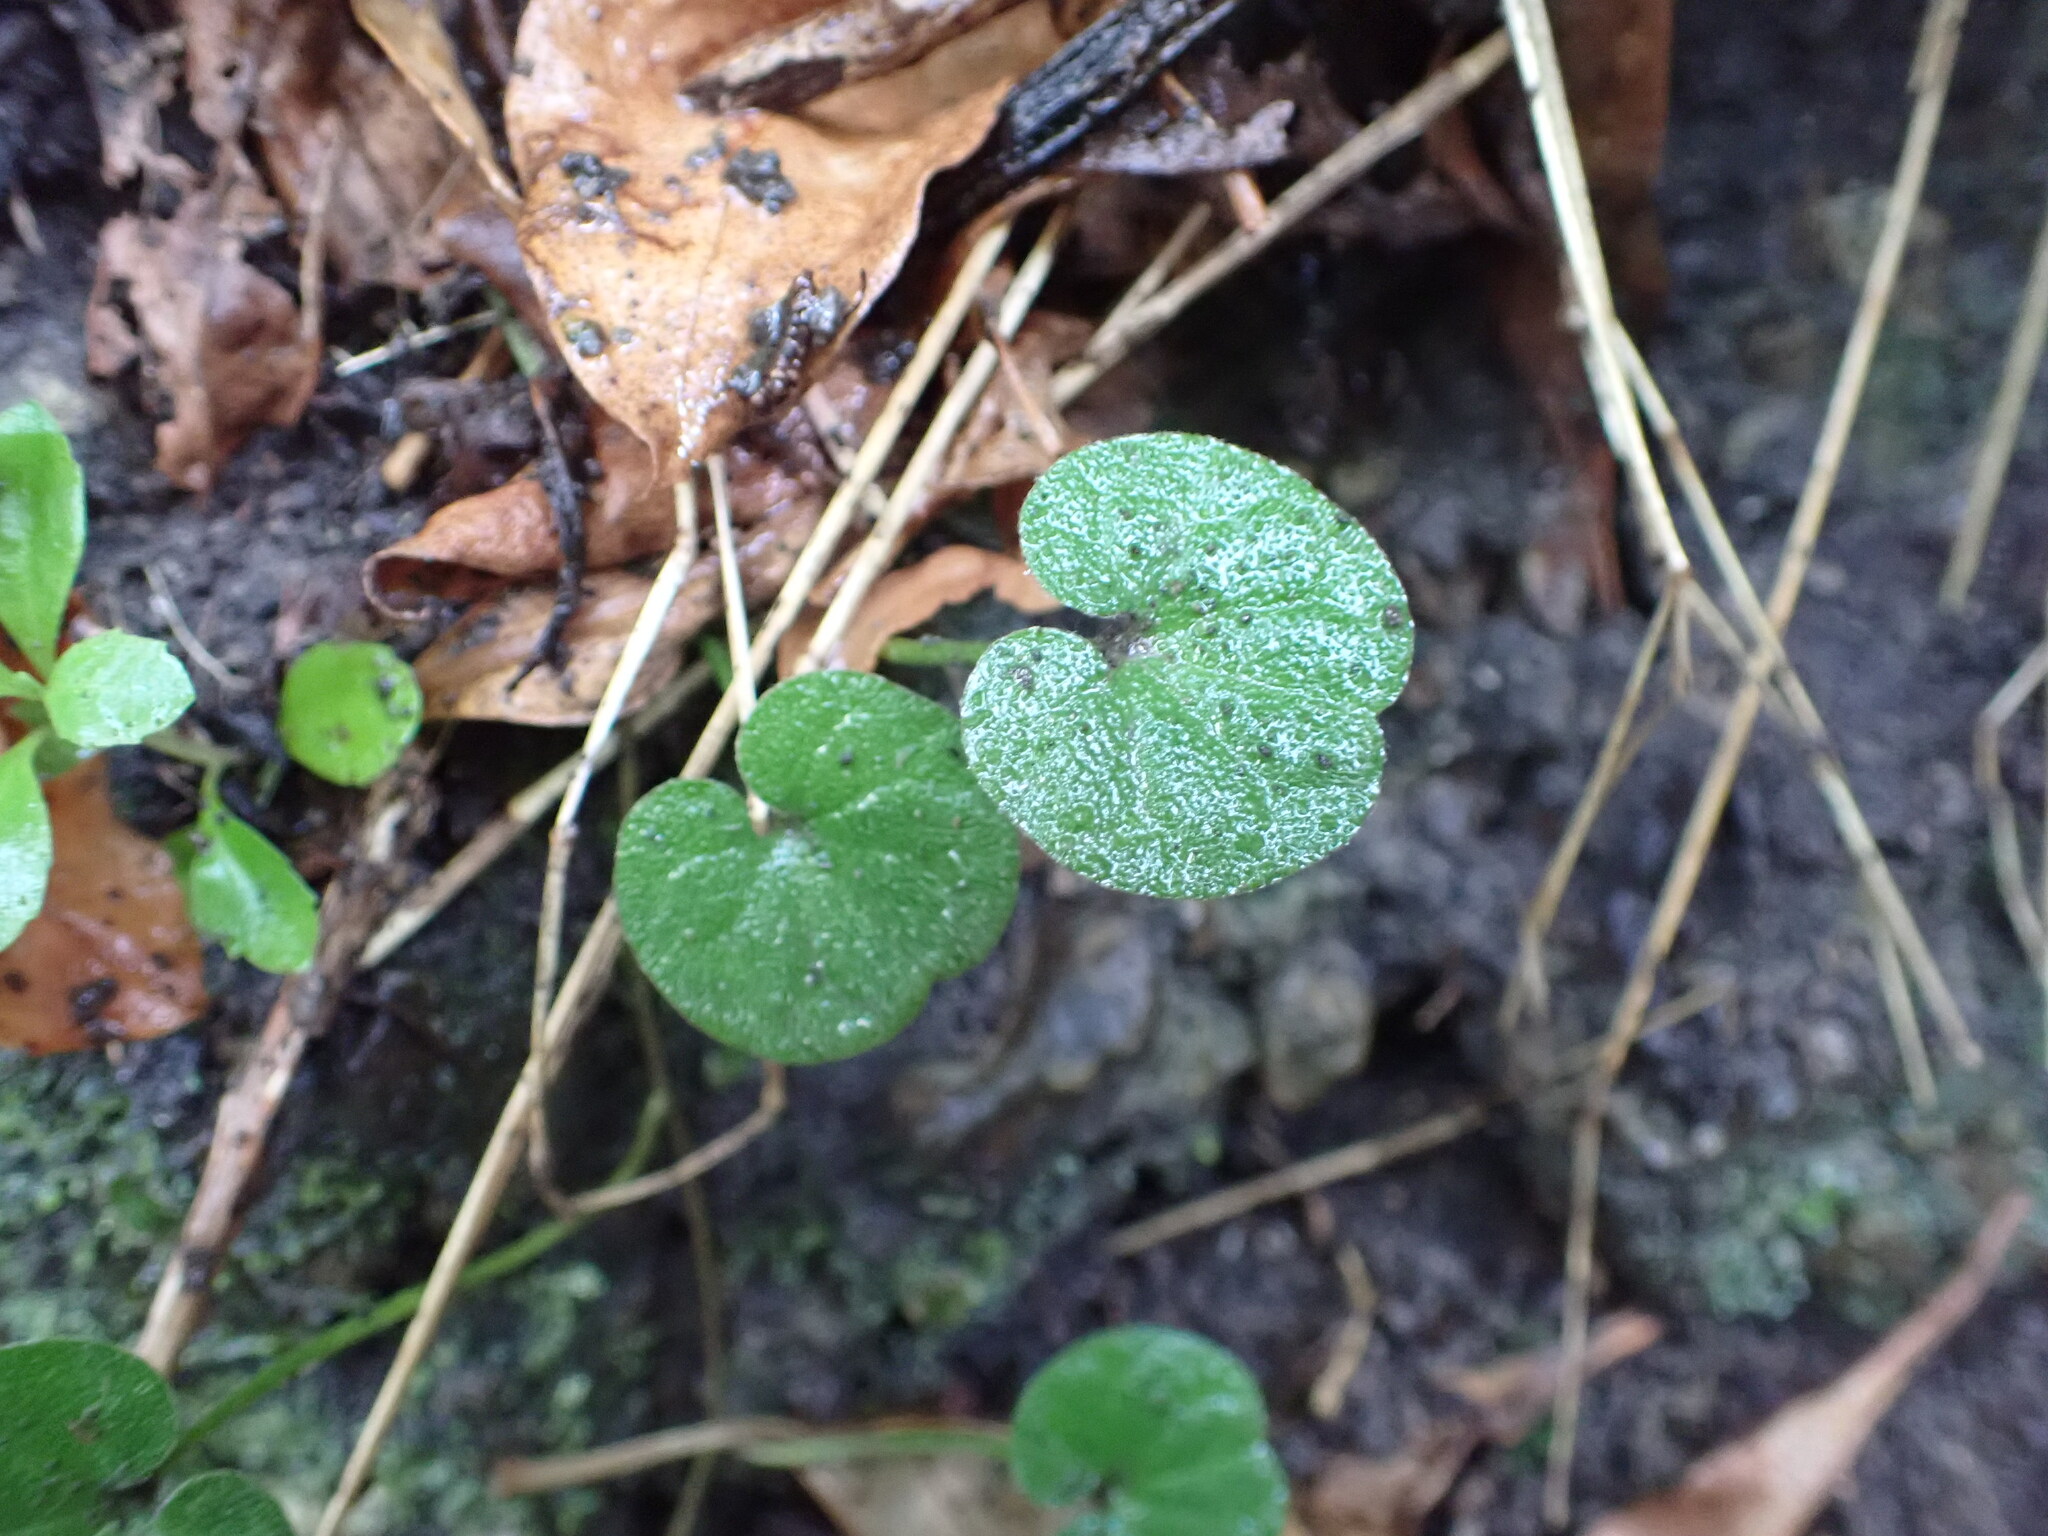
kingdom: Plantae
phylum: Tracheophyta
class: Magnoliopsida
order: Solanales
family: Convolvulaceae
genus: Dichondra
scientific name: Dichondra repens
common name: Kidneyweed
